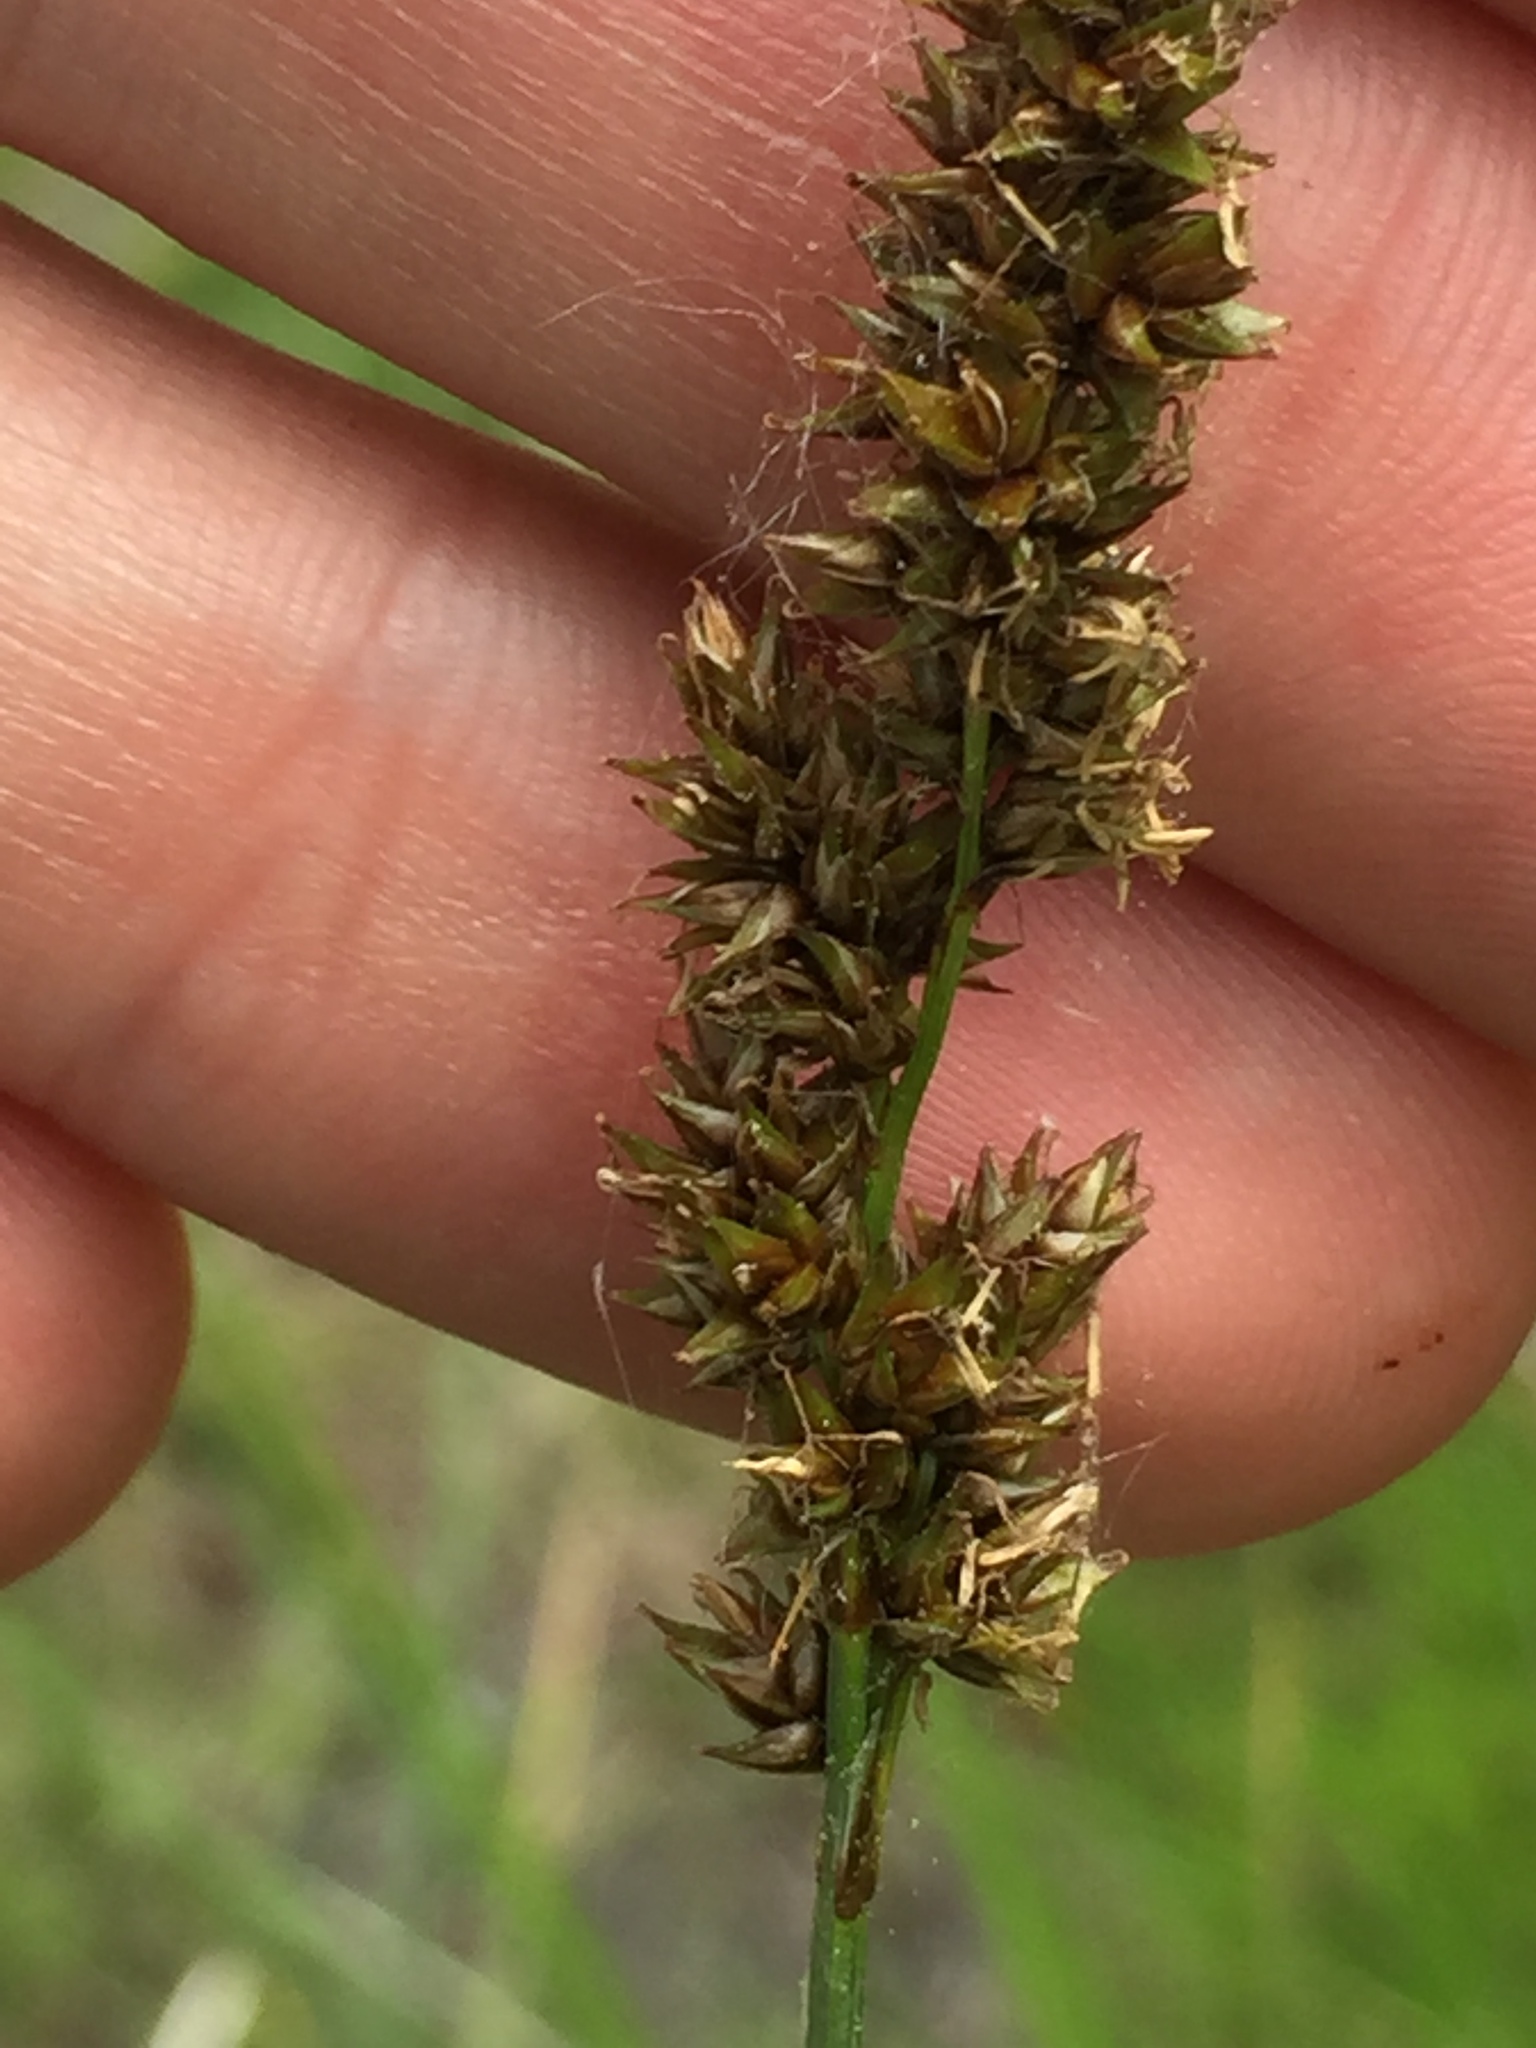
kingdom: Plantae
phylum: Tracheophyta
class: Liliopsida
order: Poales
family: Cyperaceae
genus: Carex
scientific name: Carex diandra
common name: Lesser tussock-sedge
